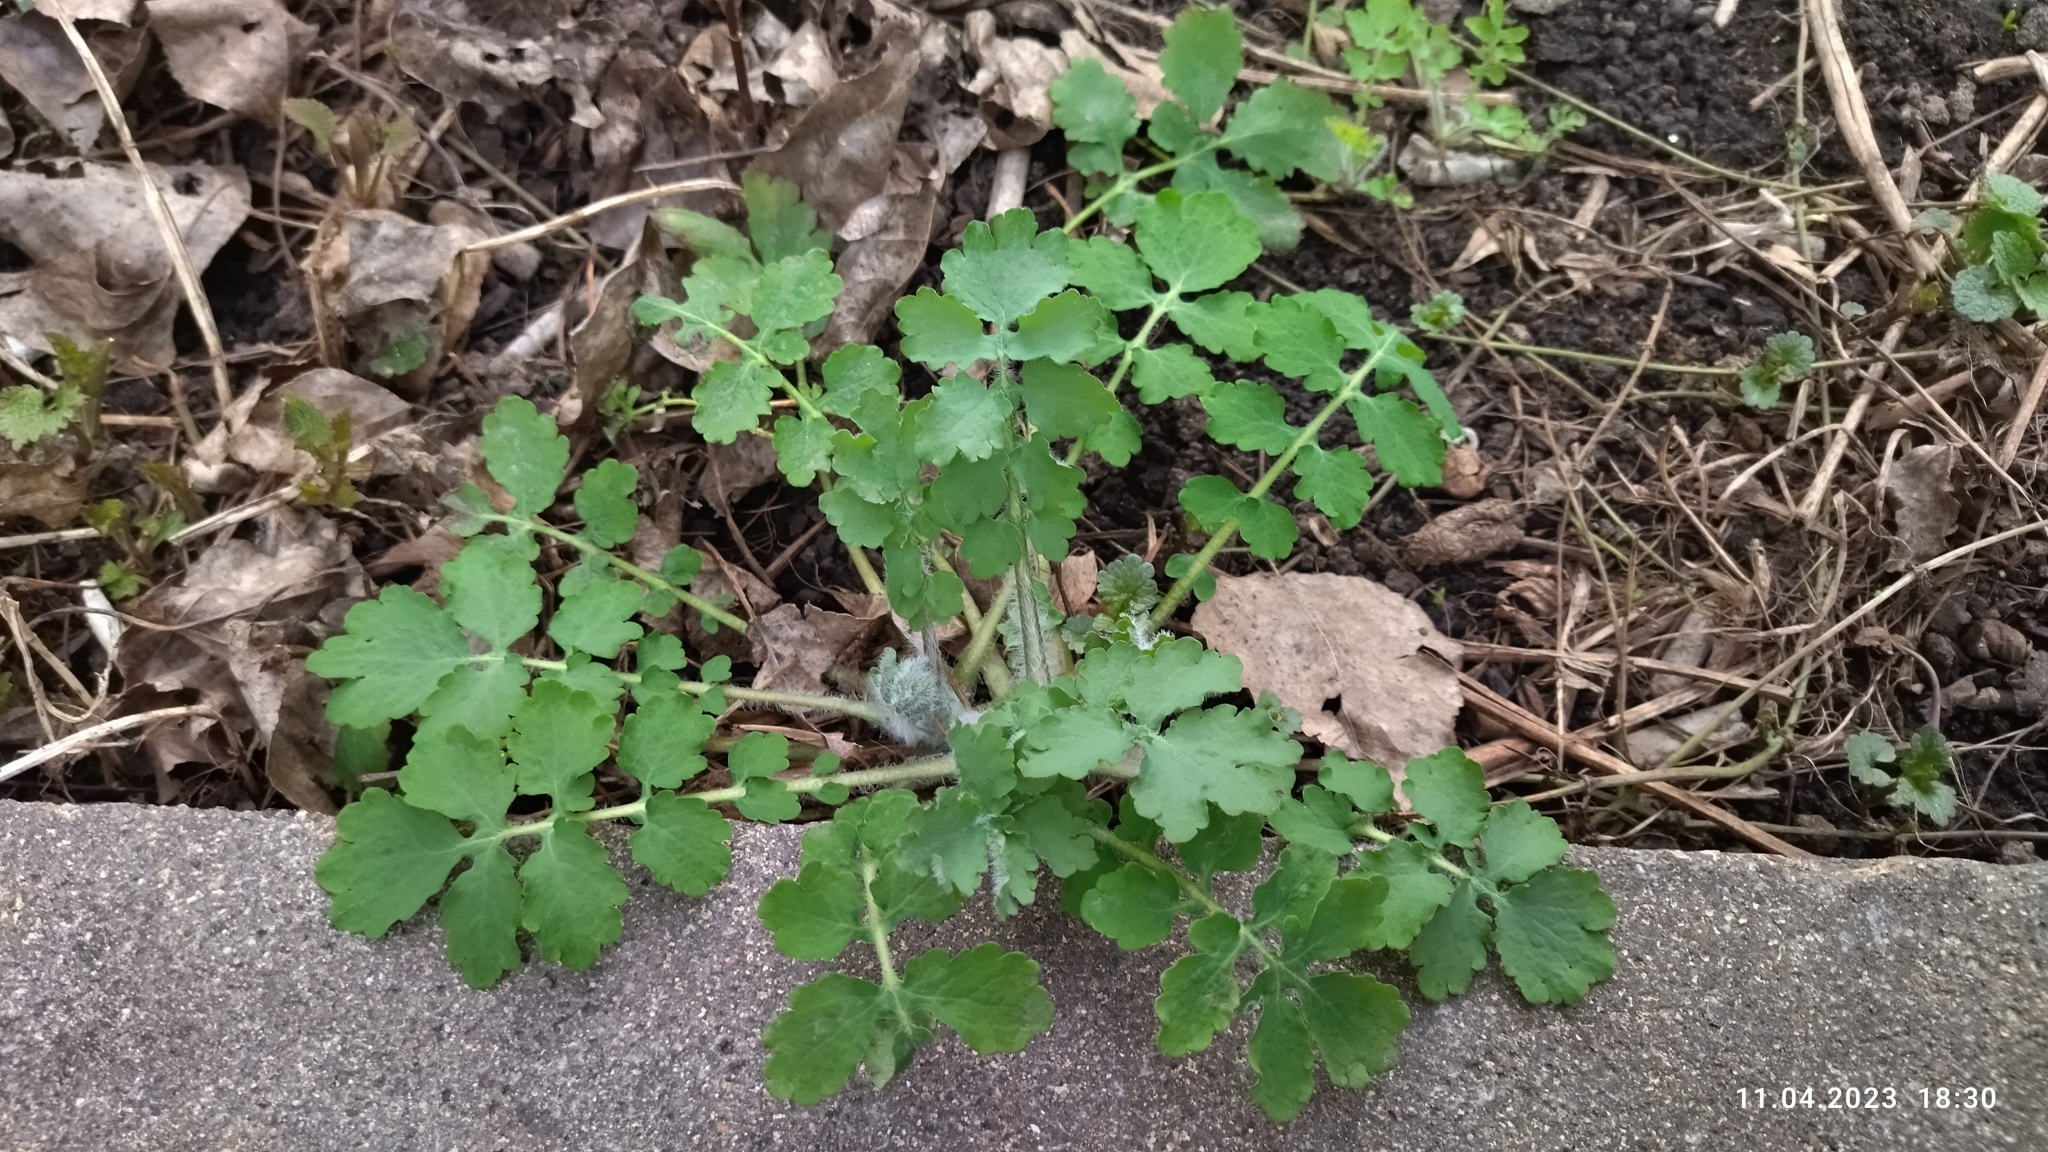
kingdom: Plantae
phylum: Tracheophyta
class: Magnoliopsida
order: Ranunculales
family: Papaveraceae
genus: Chelidonium
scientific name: Chelidonium majus
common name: Greater celandine
